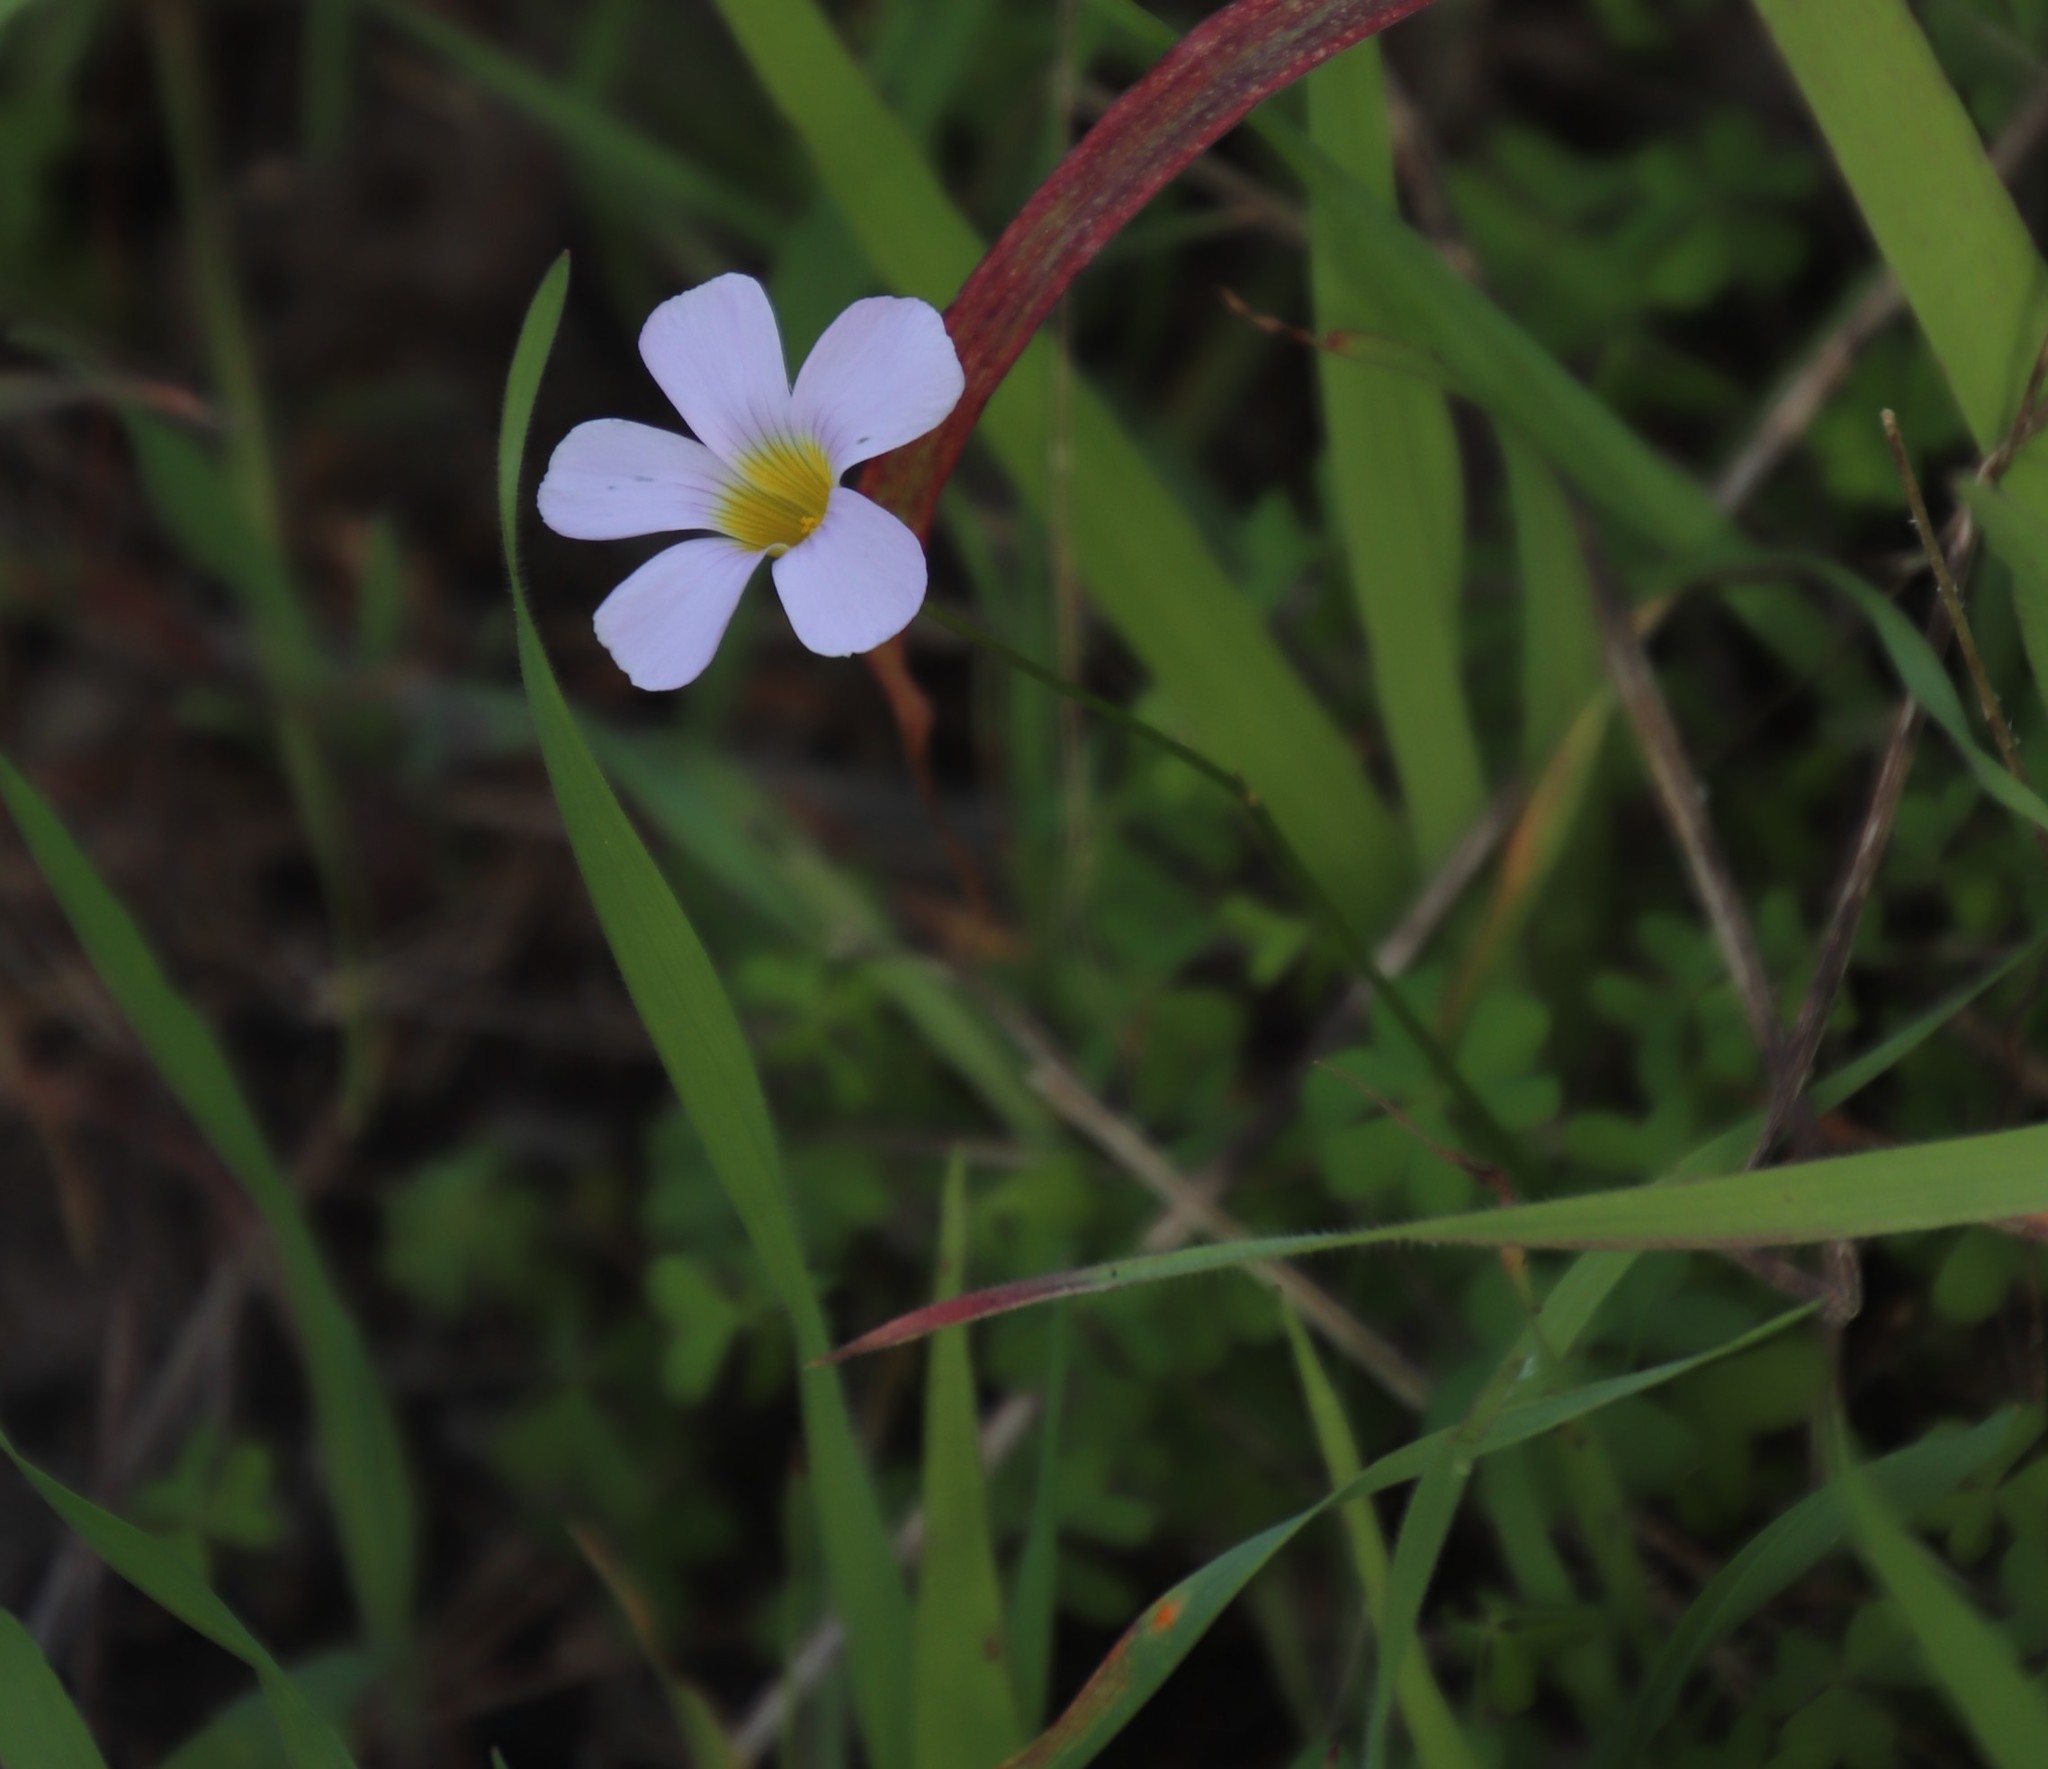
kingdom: Plantae
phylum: Tracheophyta
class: Magnoliopsida
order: Oxalidales
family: Oxalidaceae
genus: Oxalis
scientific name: Oxalis caprina
